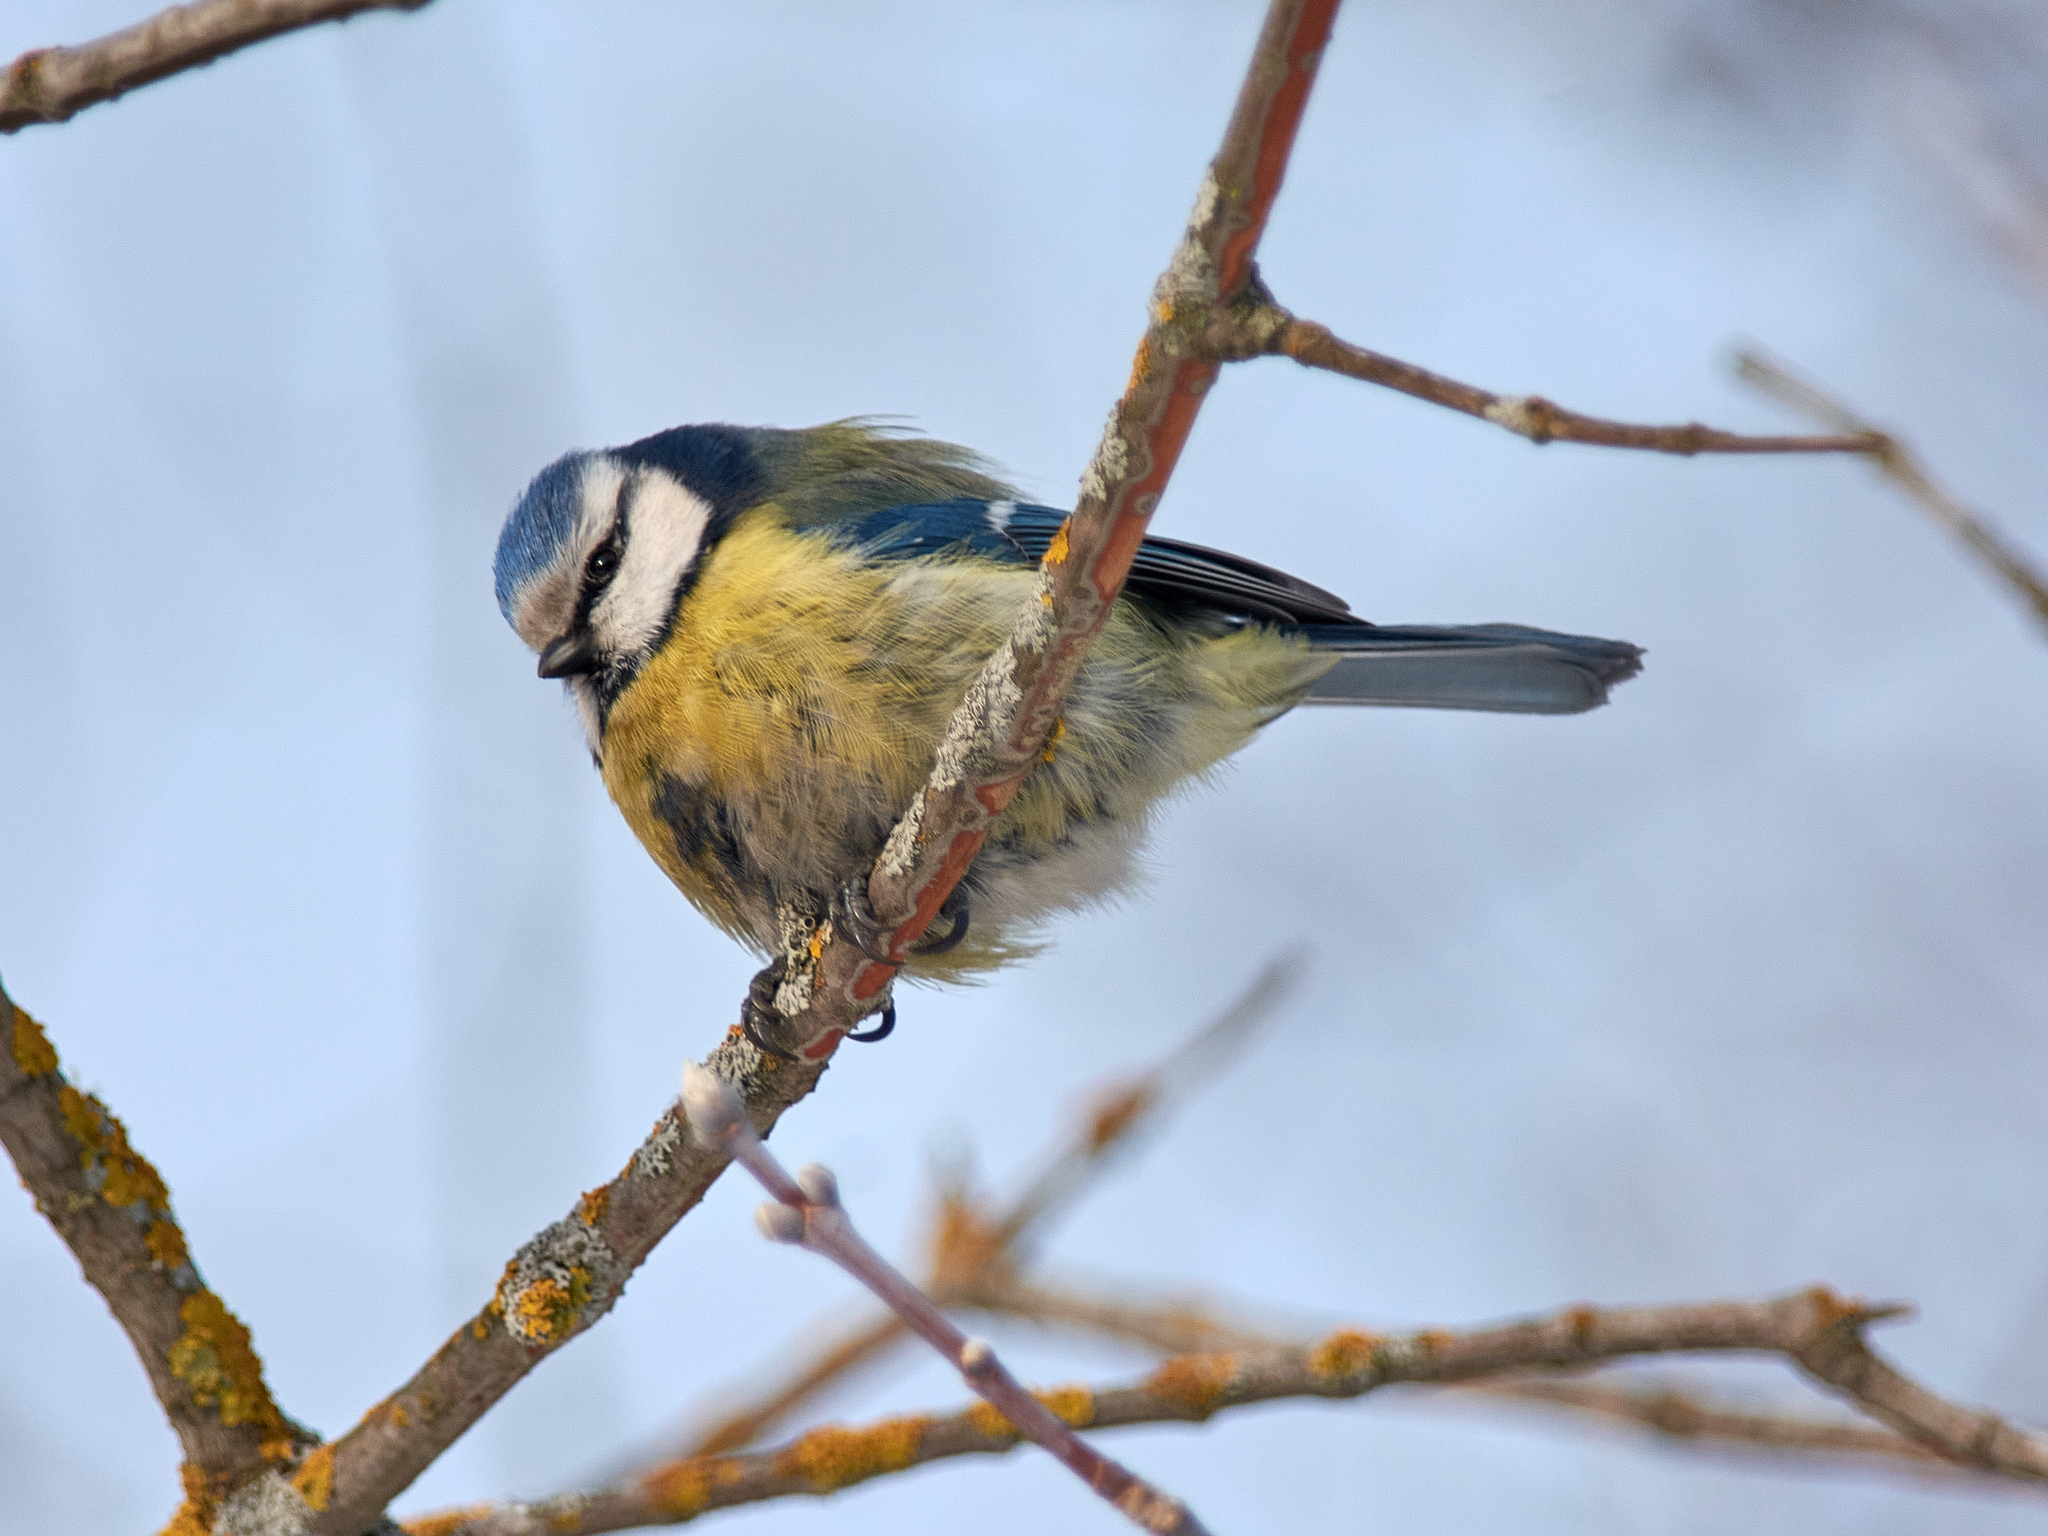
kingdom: Animalia
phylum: Chordata
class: Aves
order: Passeriformes
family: Paridae
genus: Cyanistes
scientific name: Cyanistes caeruleus
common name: Eurasian blue tit
